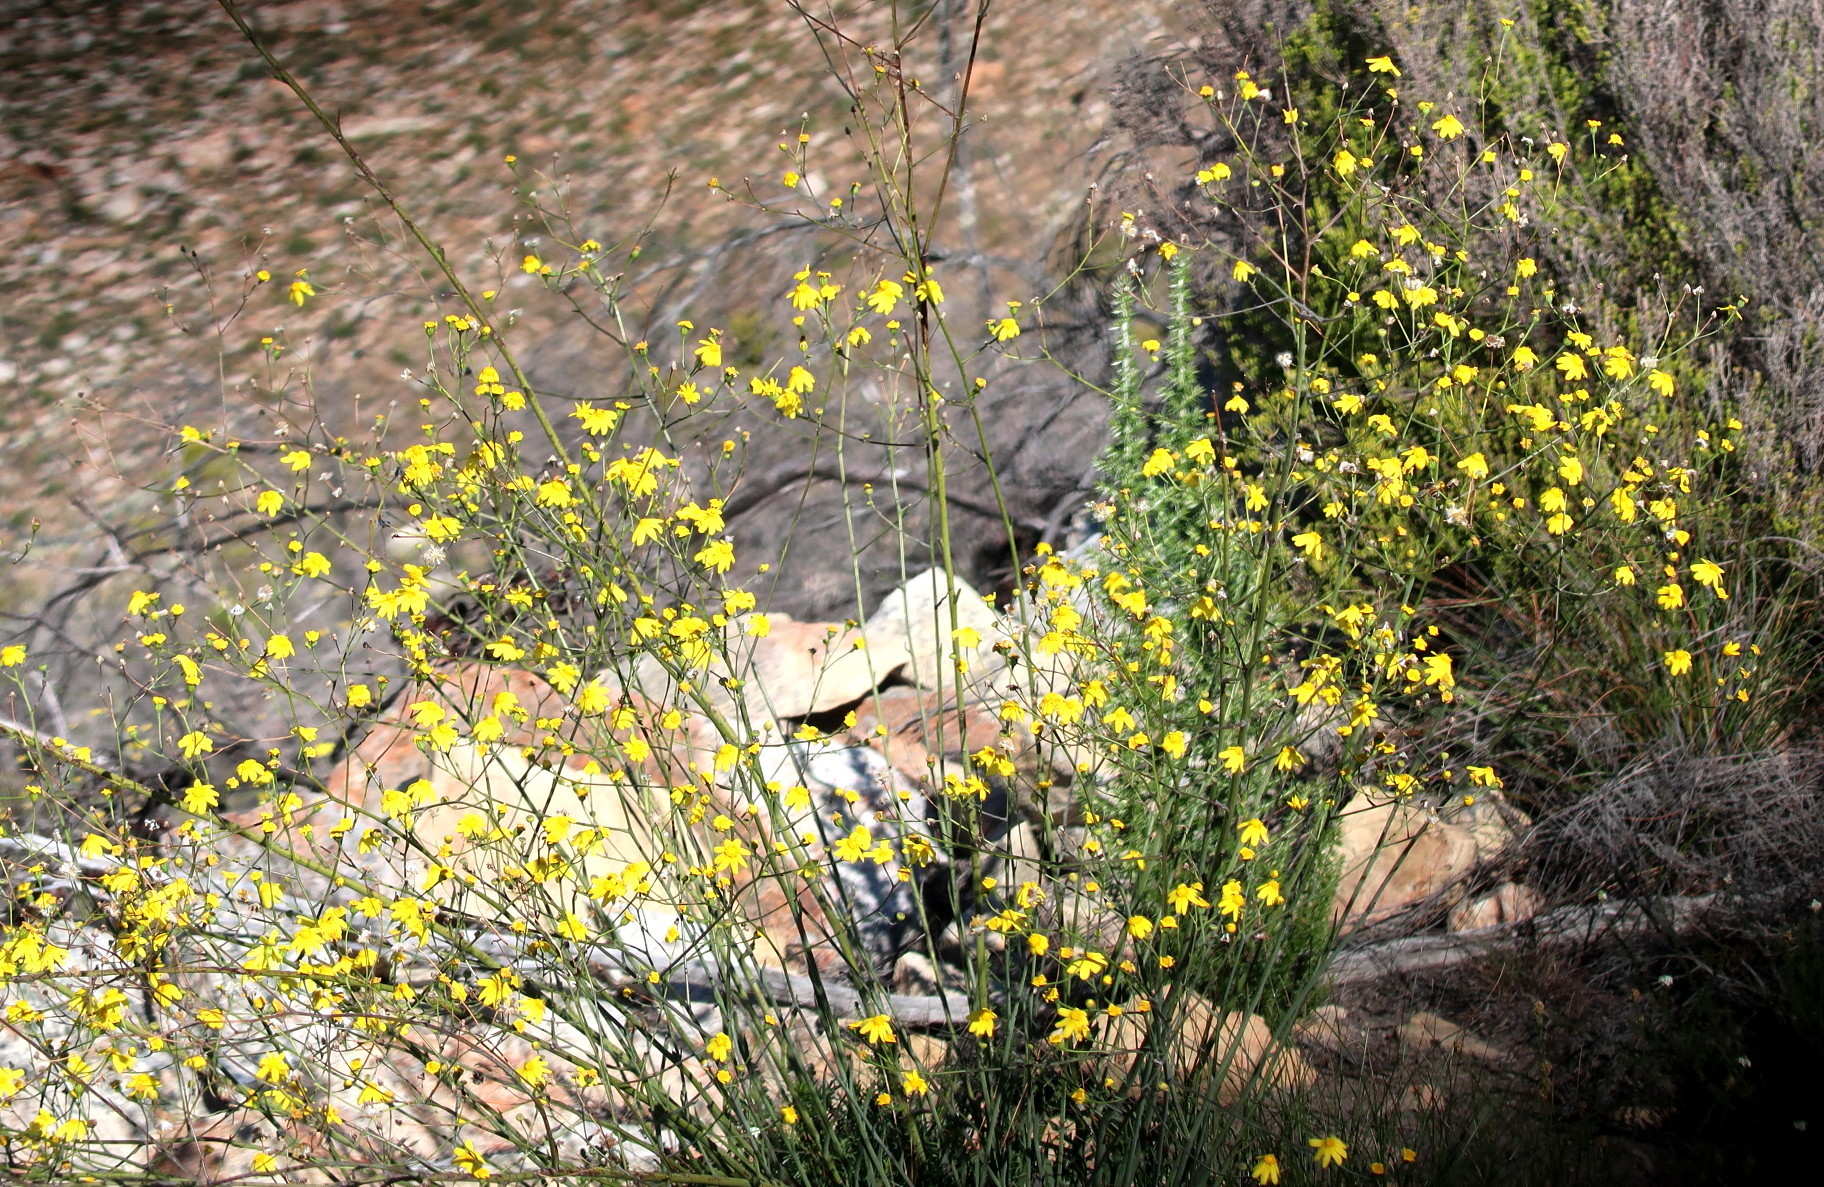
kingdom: Plantae
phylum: Tracheophyta
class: Magnoliopsida
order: Asterales
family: Asteraceae
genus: Othonna
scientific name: Othonna quinquedentata
